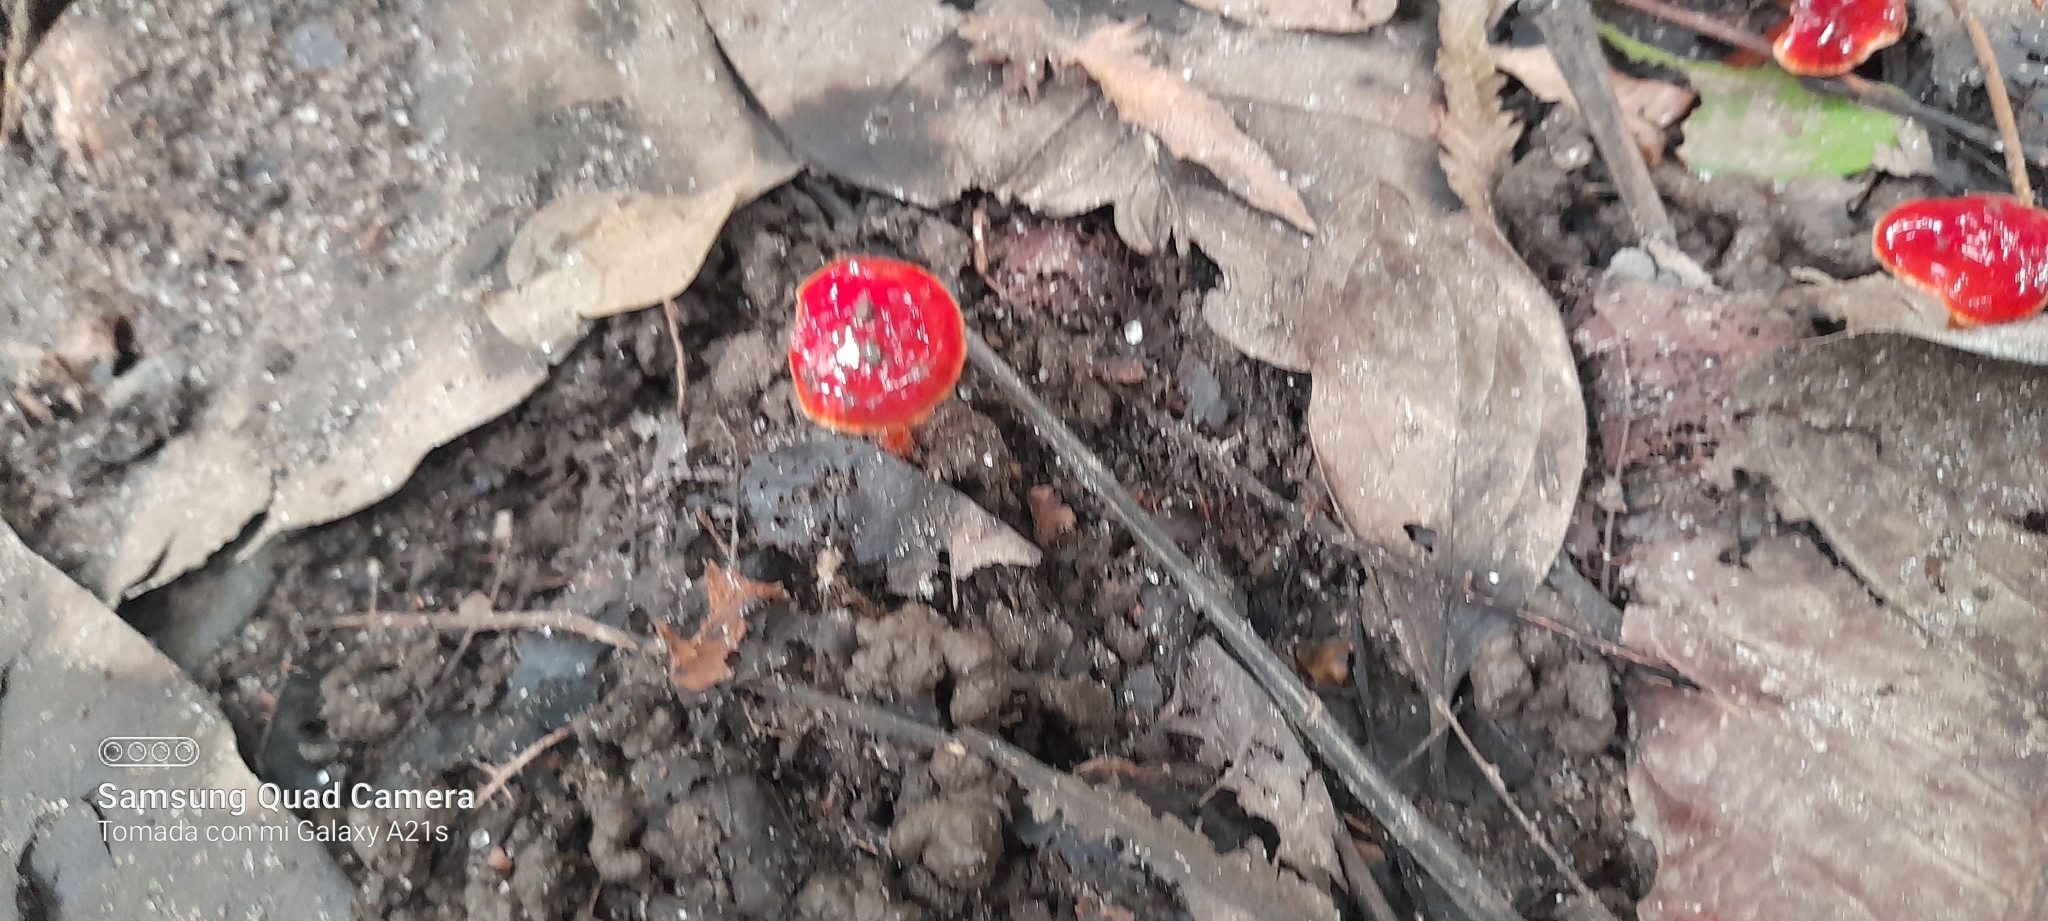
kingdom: Fungi
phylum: Basidiomycota
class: Agaricomycetes
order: Agaricales
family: Hygrophoraceae
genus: Hygrocybe
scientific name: Hygrocybe minutula
